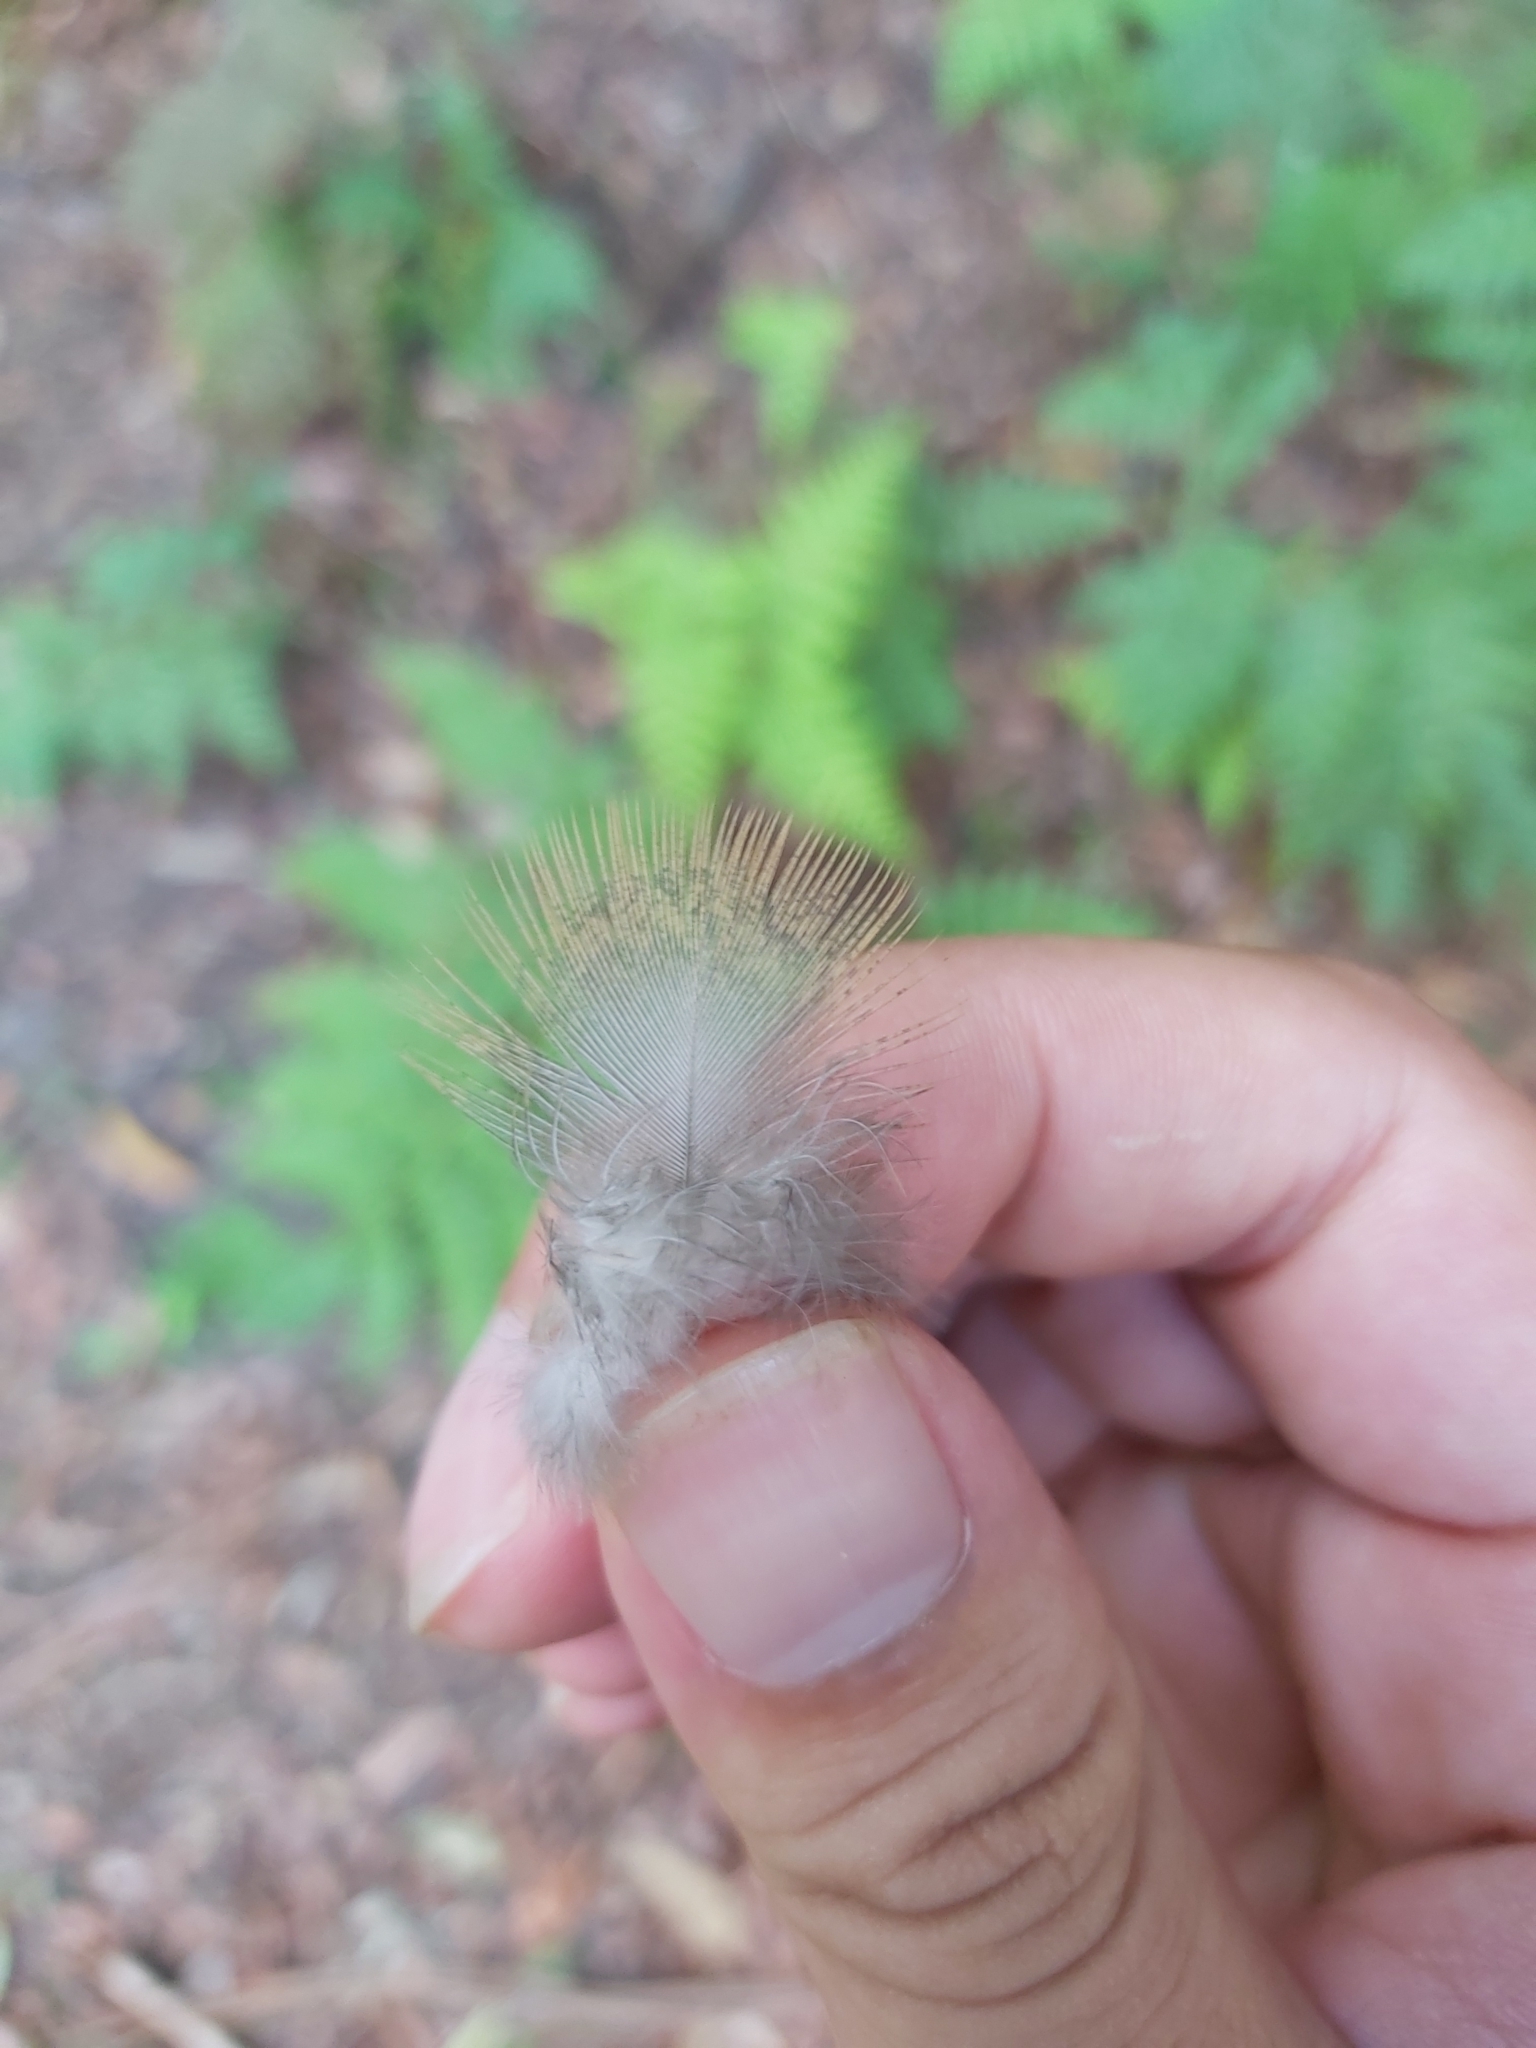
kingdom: Animalia
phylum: Chordata
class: Aves
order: Columbiformes
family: Columbidae
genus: Macropygia
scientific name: Macropygia phasianella
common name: Brown cuckoo-dove
